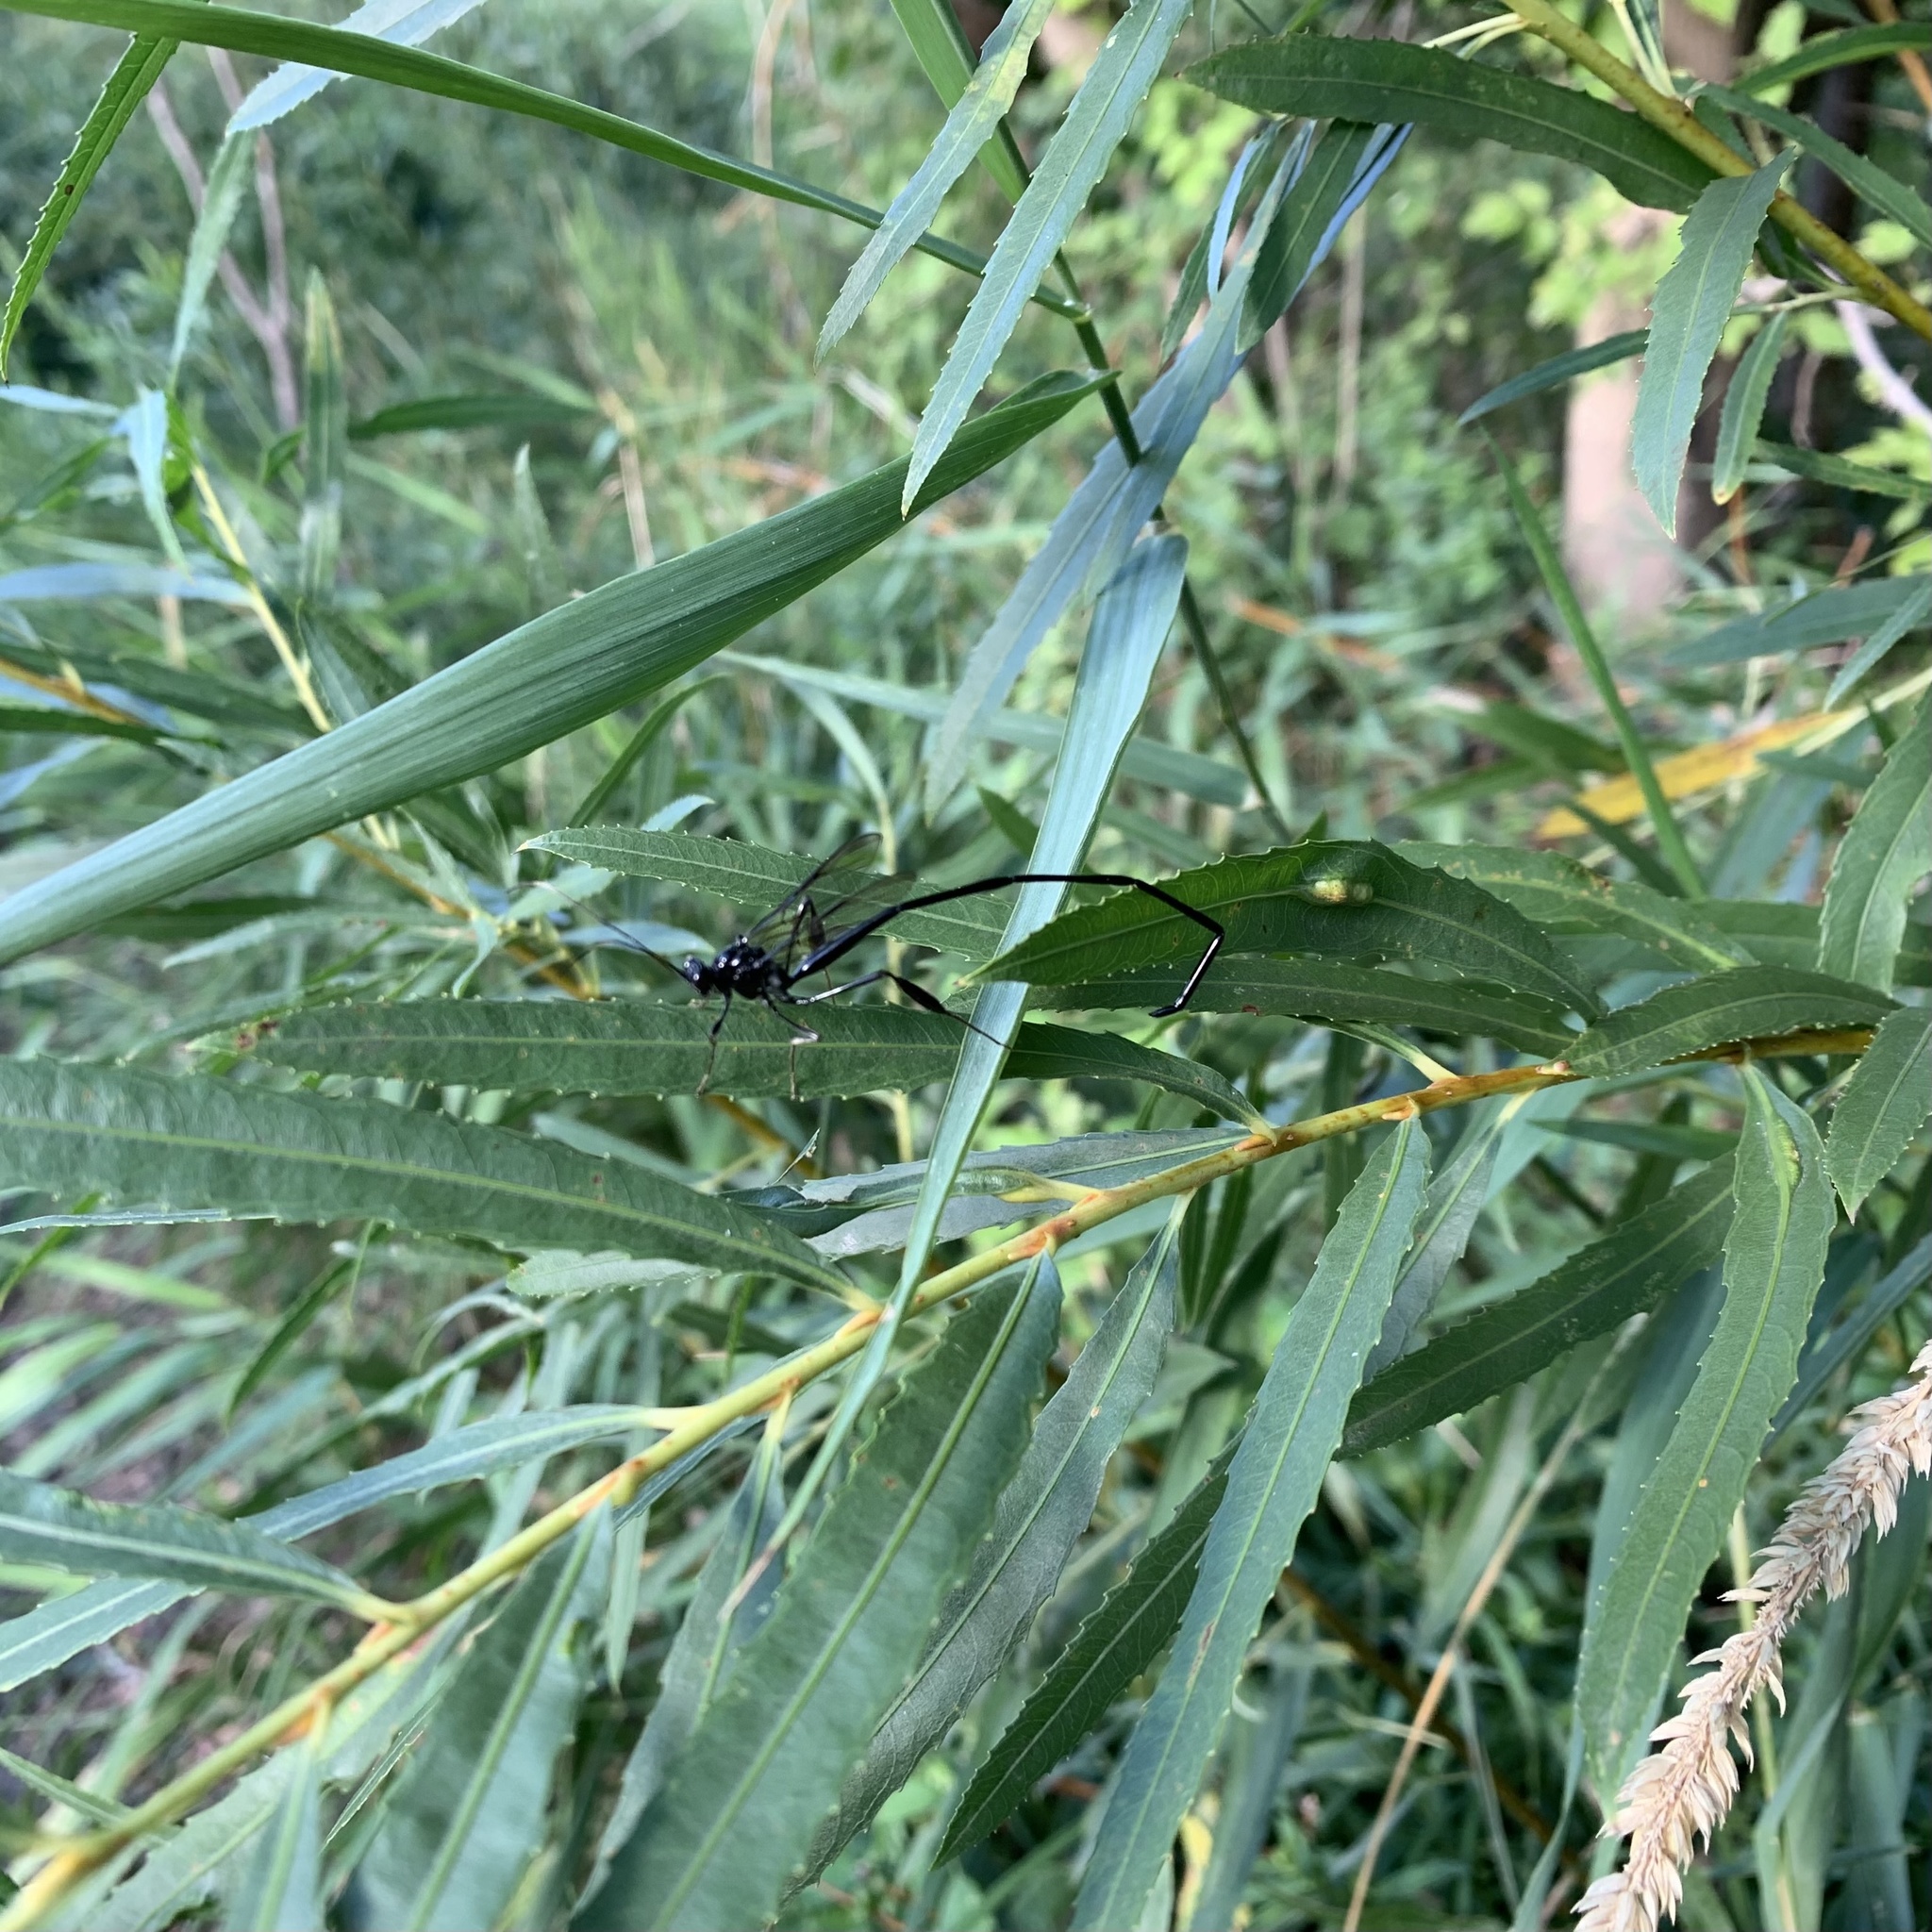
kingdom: Animalia
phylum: Arthropoda
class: Insecta
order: Hymenoptera
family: Pelecinidae
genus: Pelecinus
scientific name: Pelecinus polyturator
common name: American pelecinid wasp
